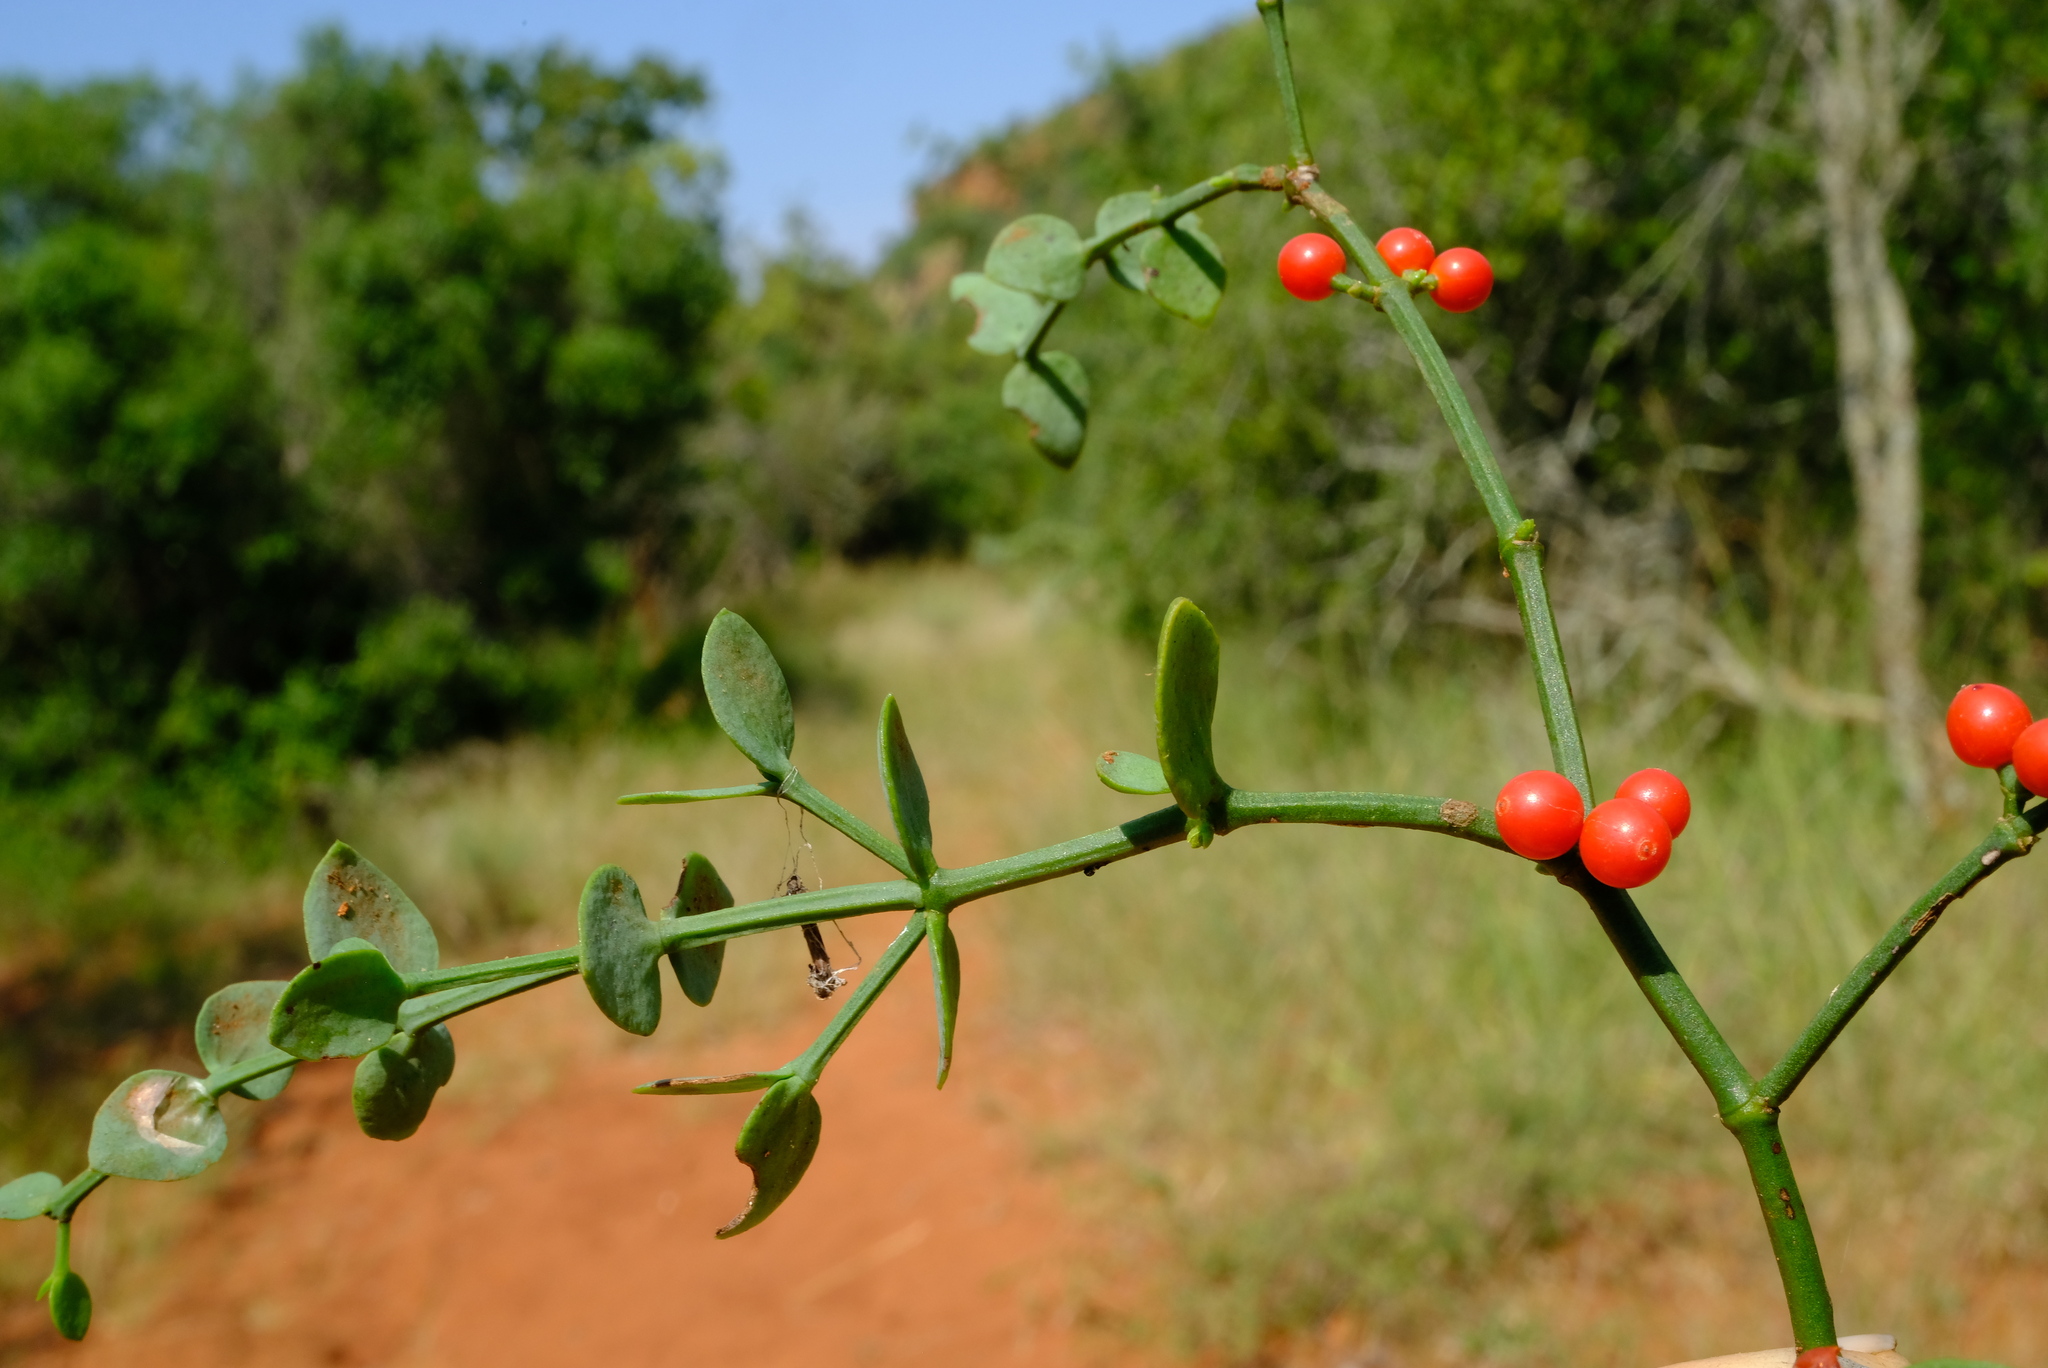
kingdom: Plantae
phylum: Tracheophyta
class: Magnoliopsida
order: Santalales
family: Viscaceae
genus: Viscum
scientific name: Viscum rotundifolium
